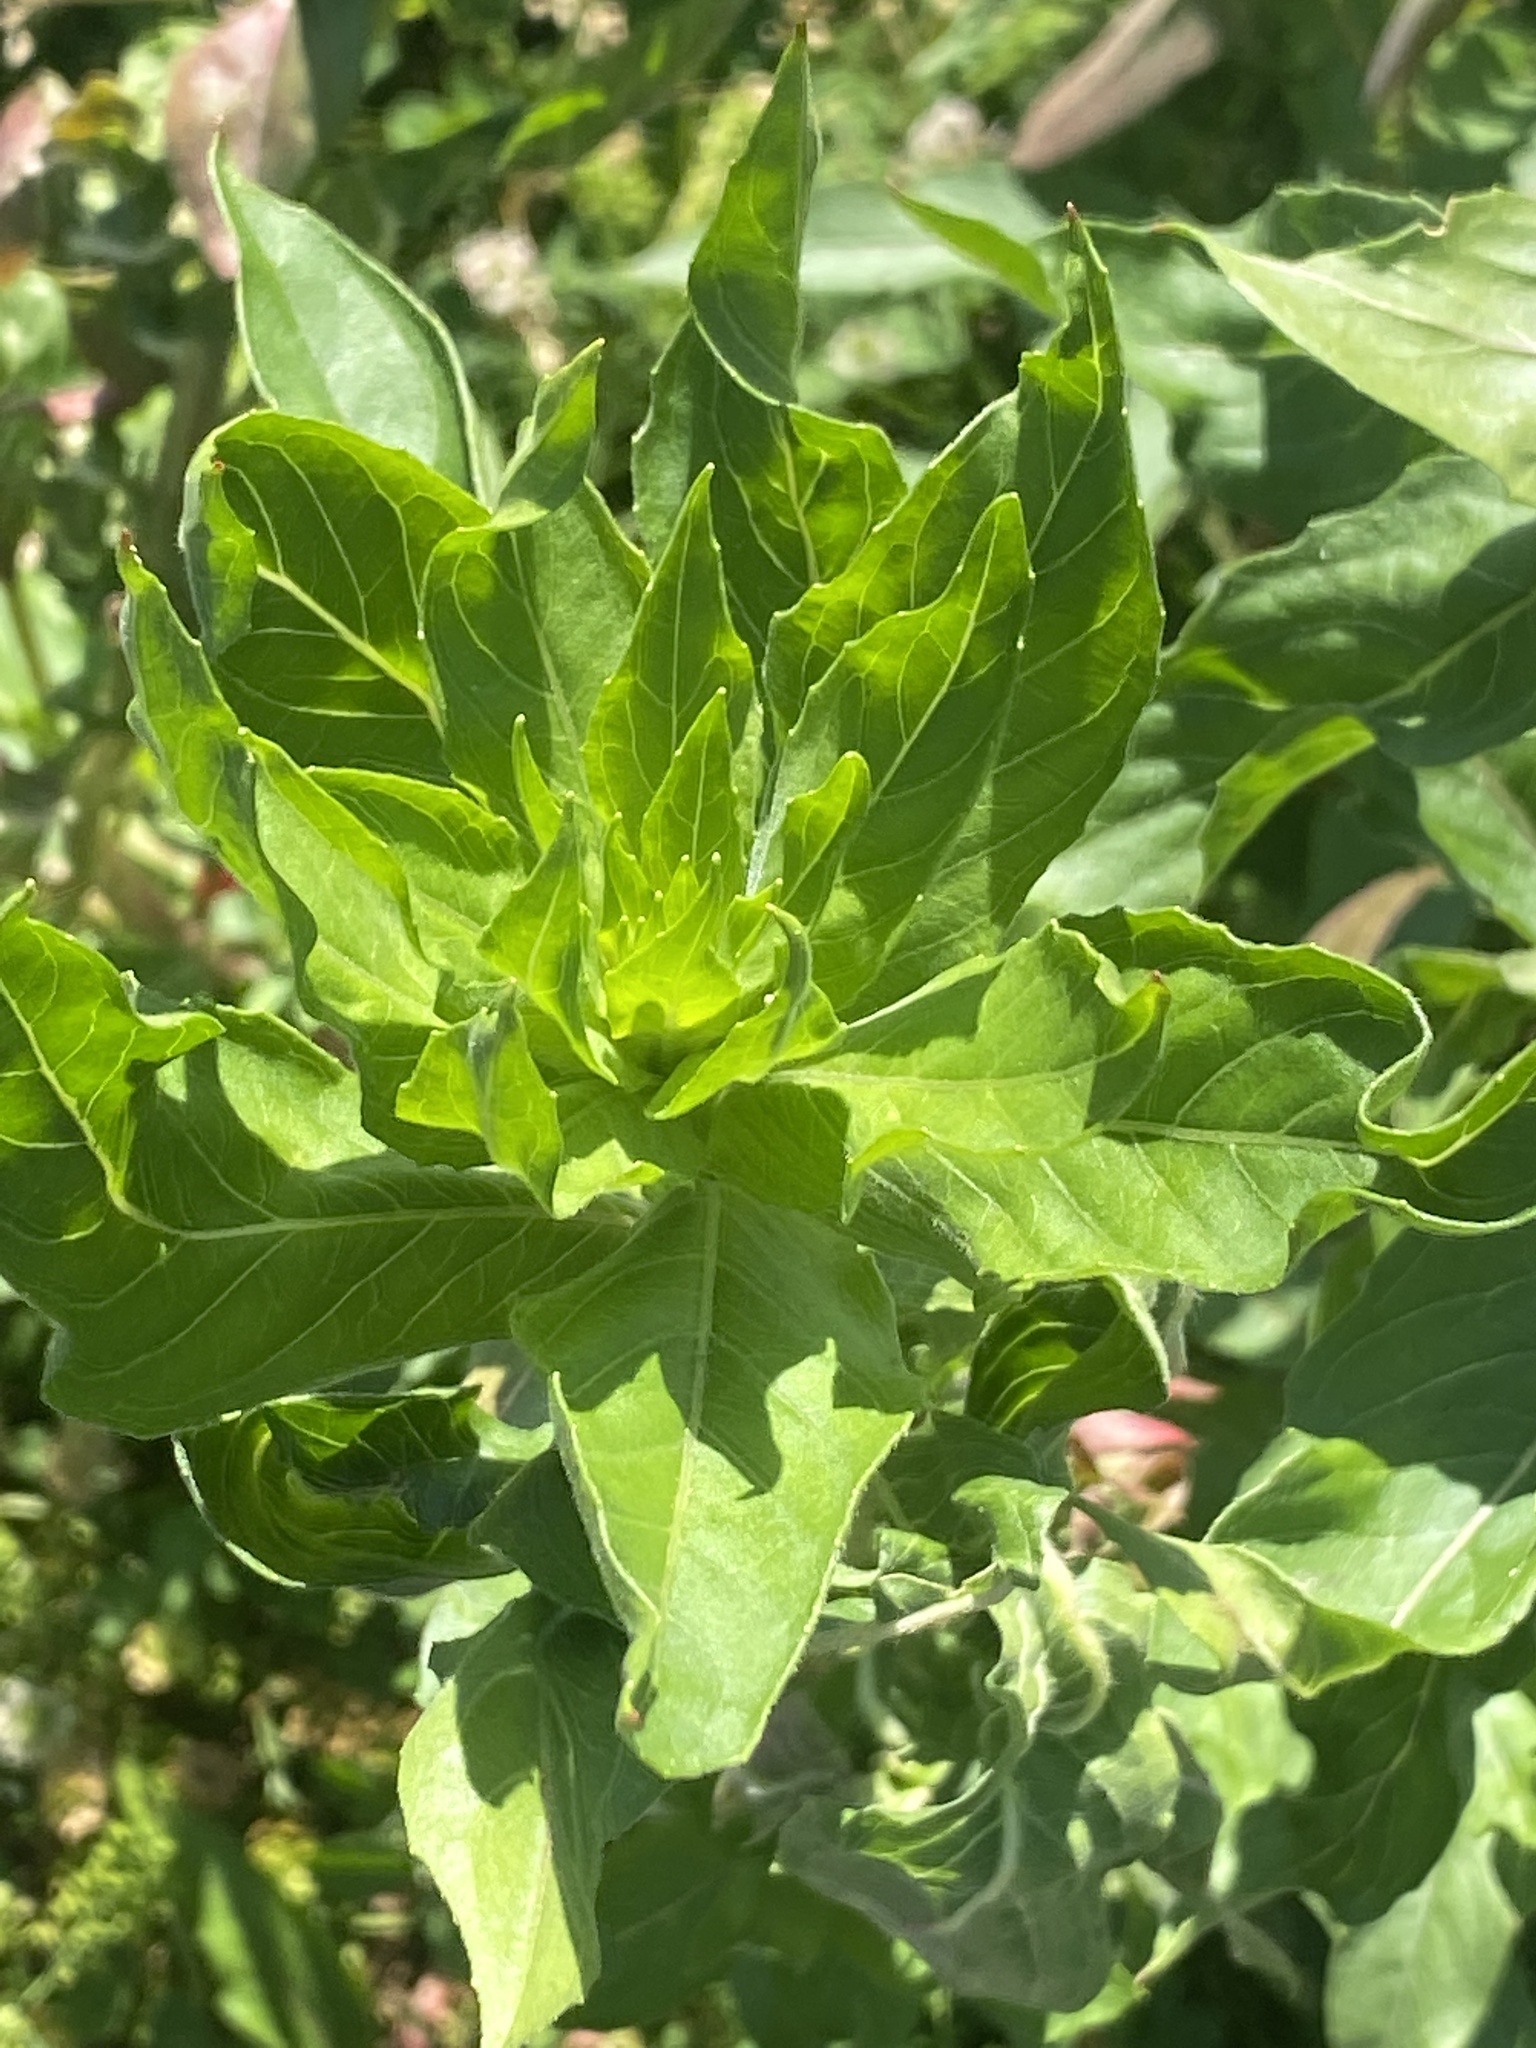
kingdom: Plantae
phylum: Tracheophyta
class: Magnoliopsida
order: Myrtales
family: Onagraceae
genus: Oenothera
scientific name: Oenothera biennis
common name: Common evening-primrose
